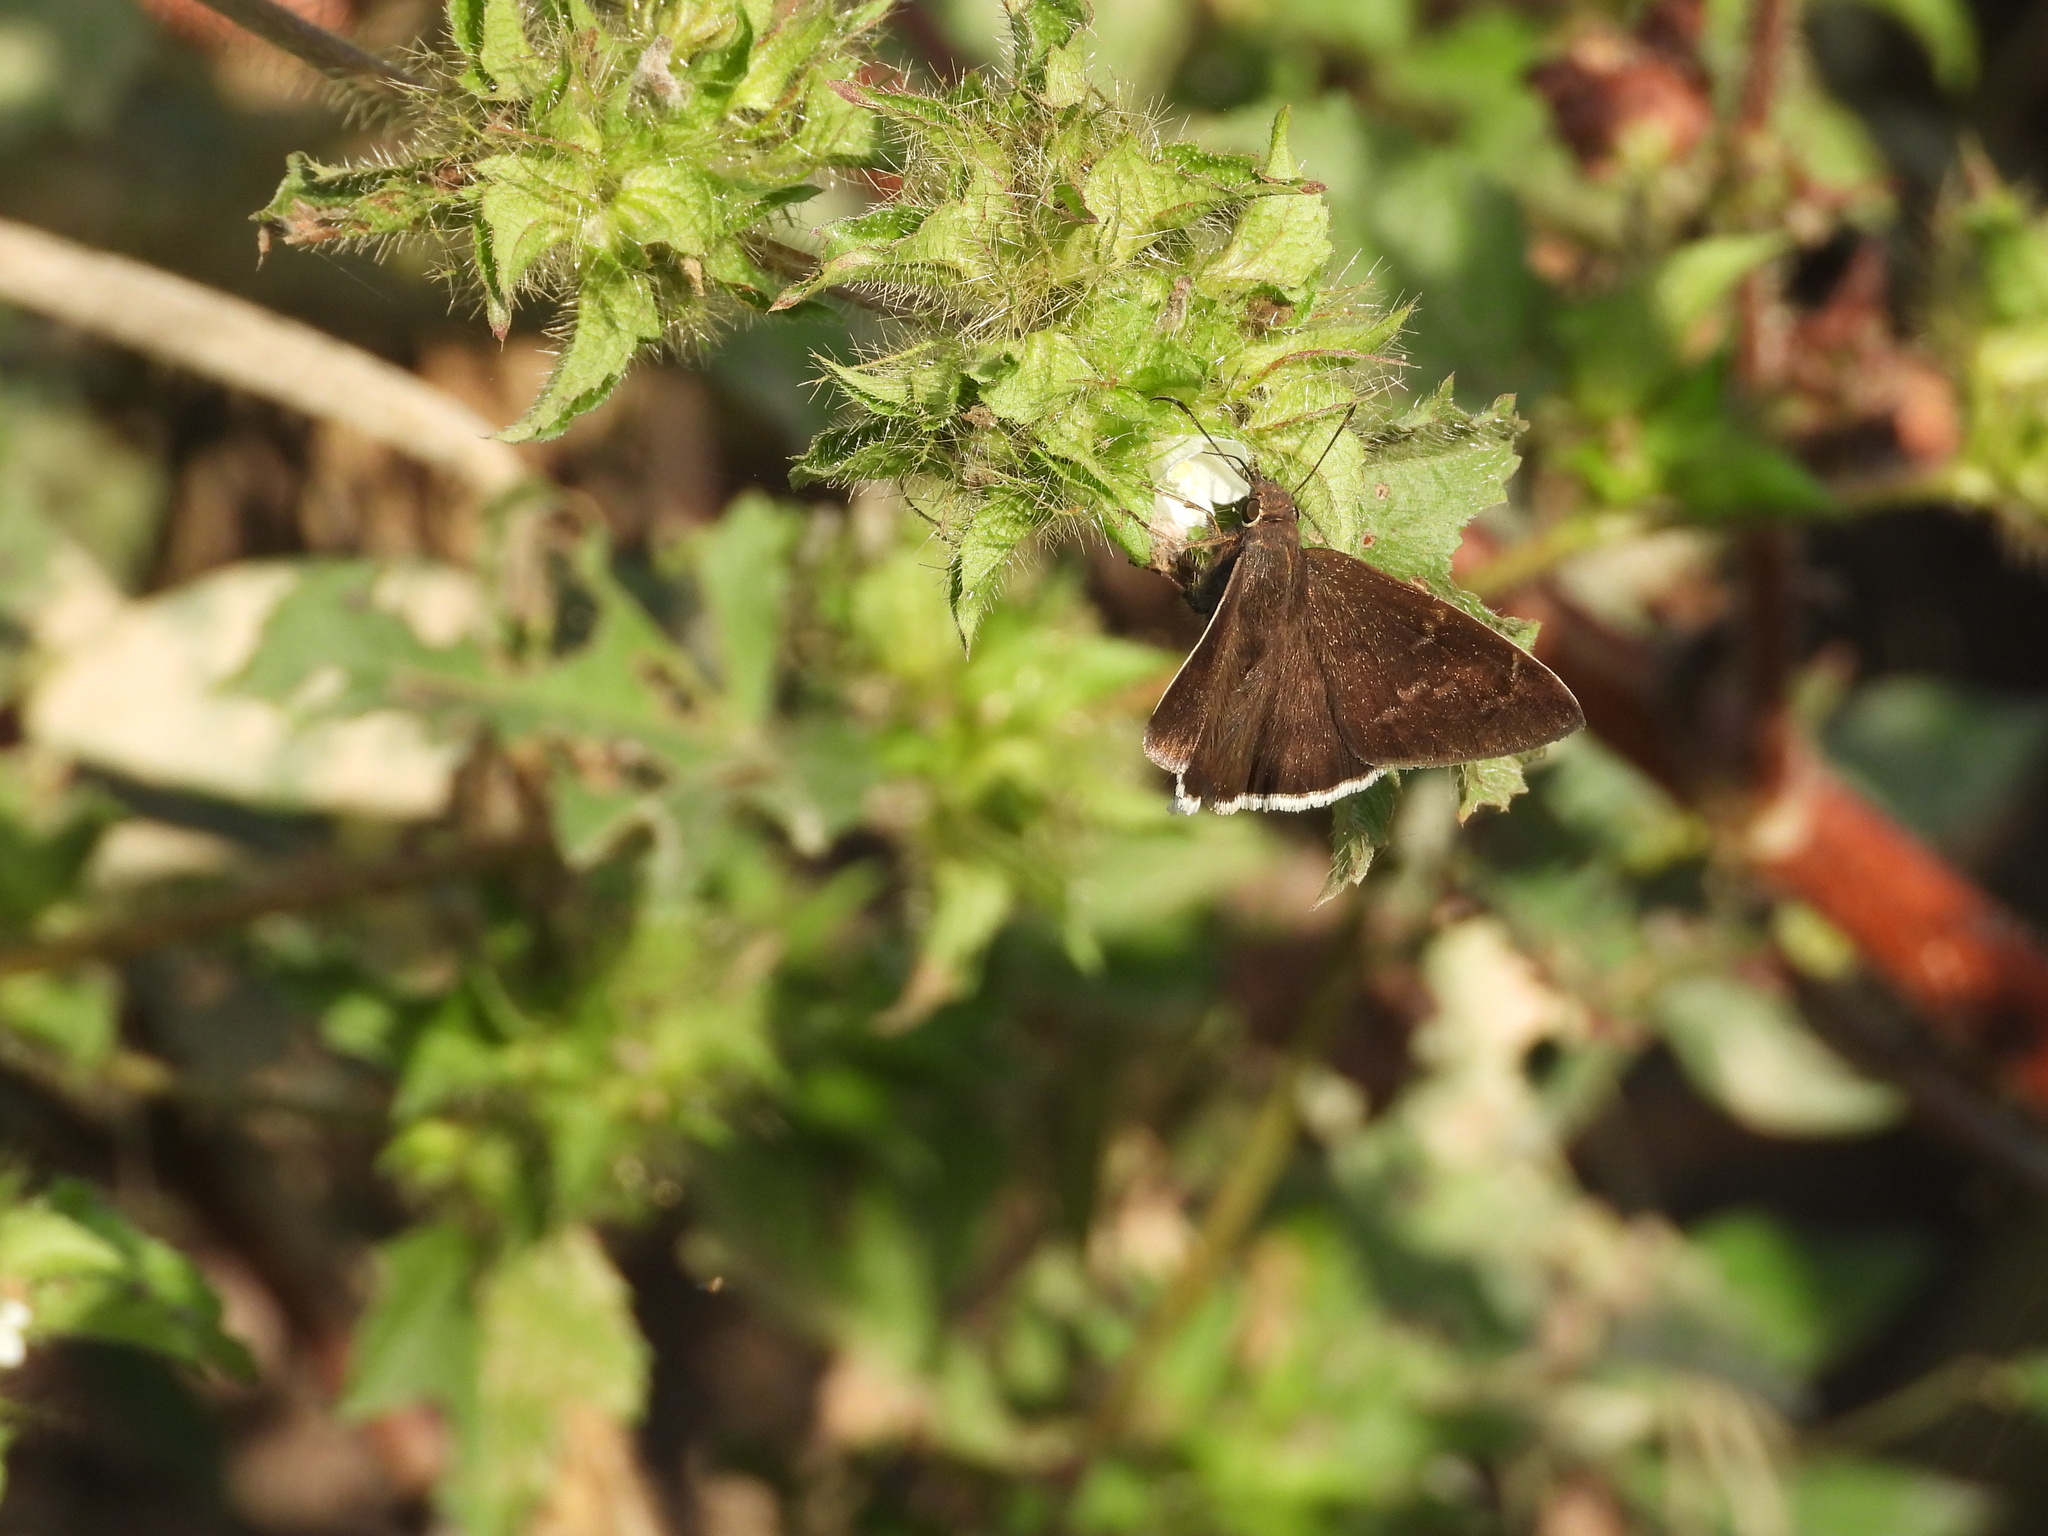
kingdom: Animalia
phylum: Arthropoda
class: Insecta
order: Lepidoptera
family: Hesperiidae
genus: Autochton
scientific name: Autochton
